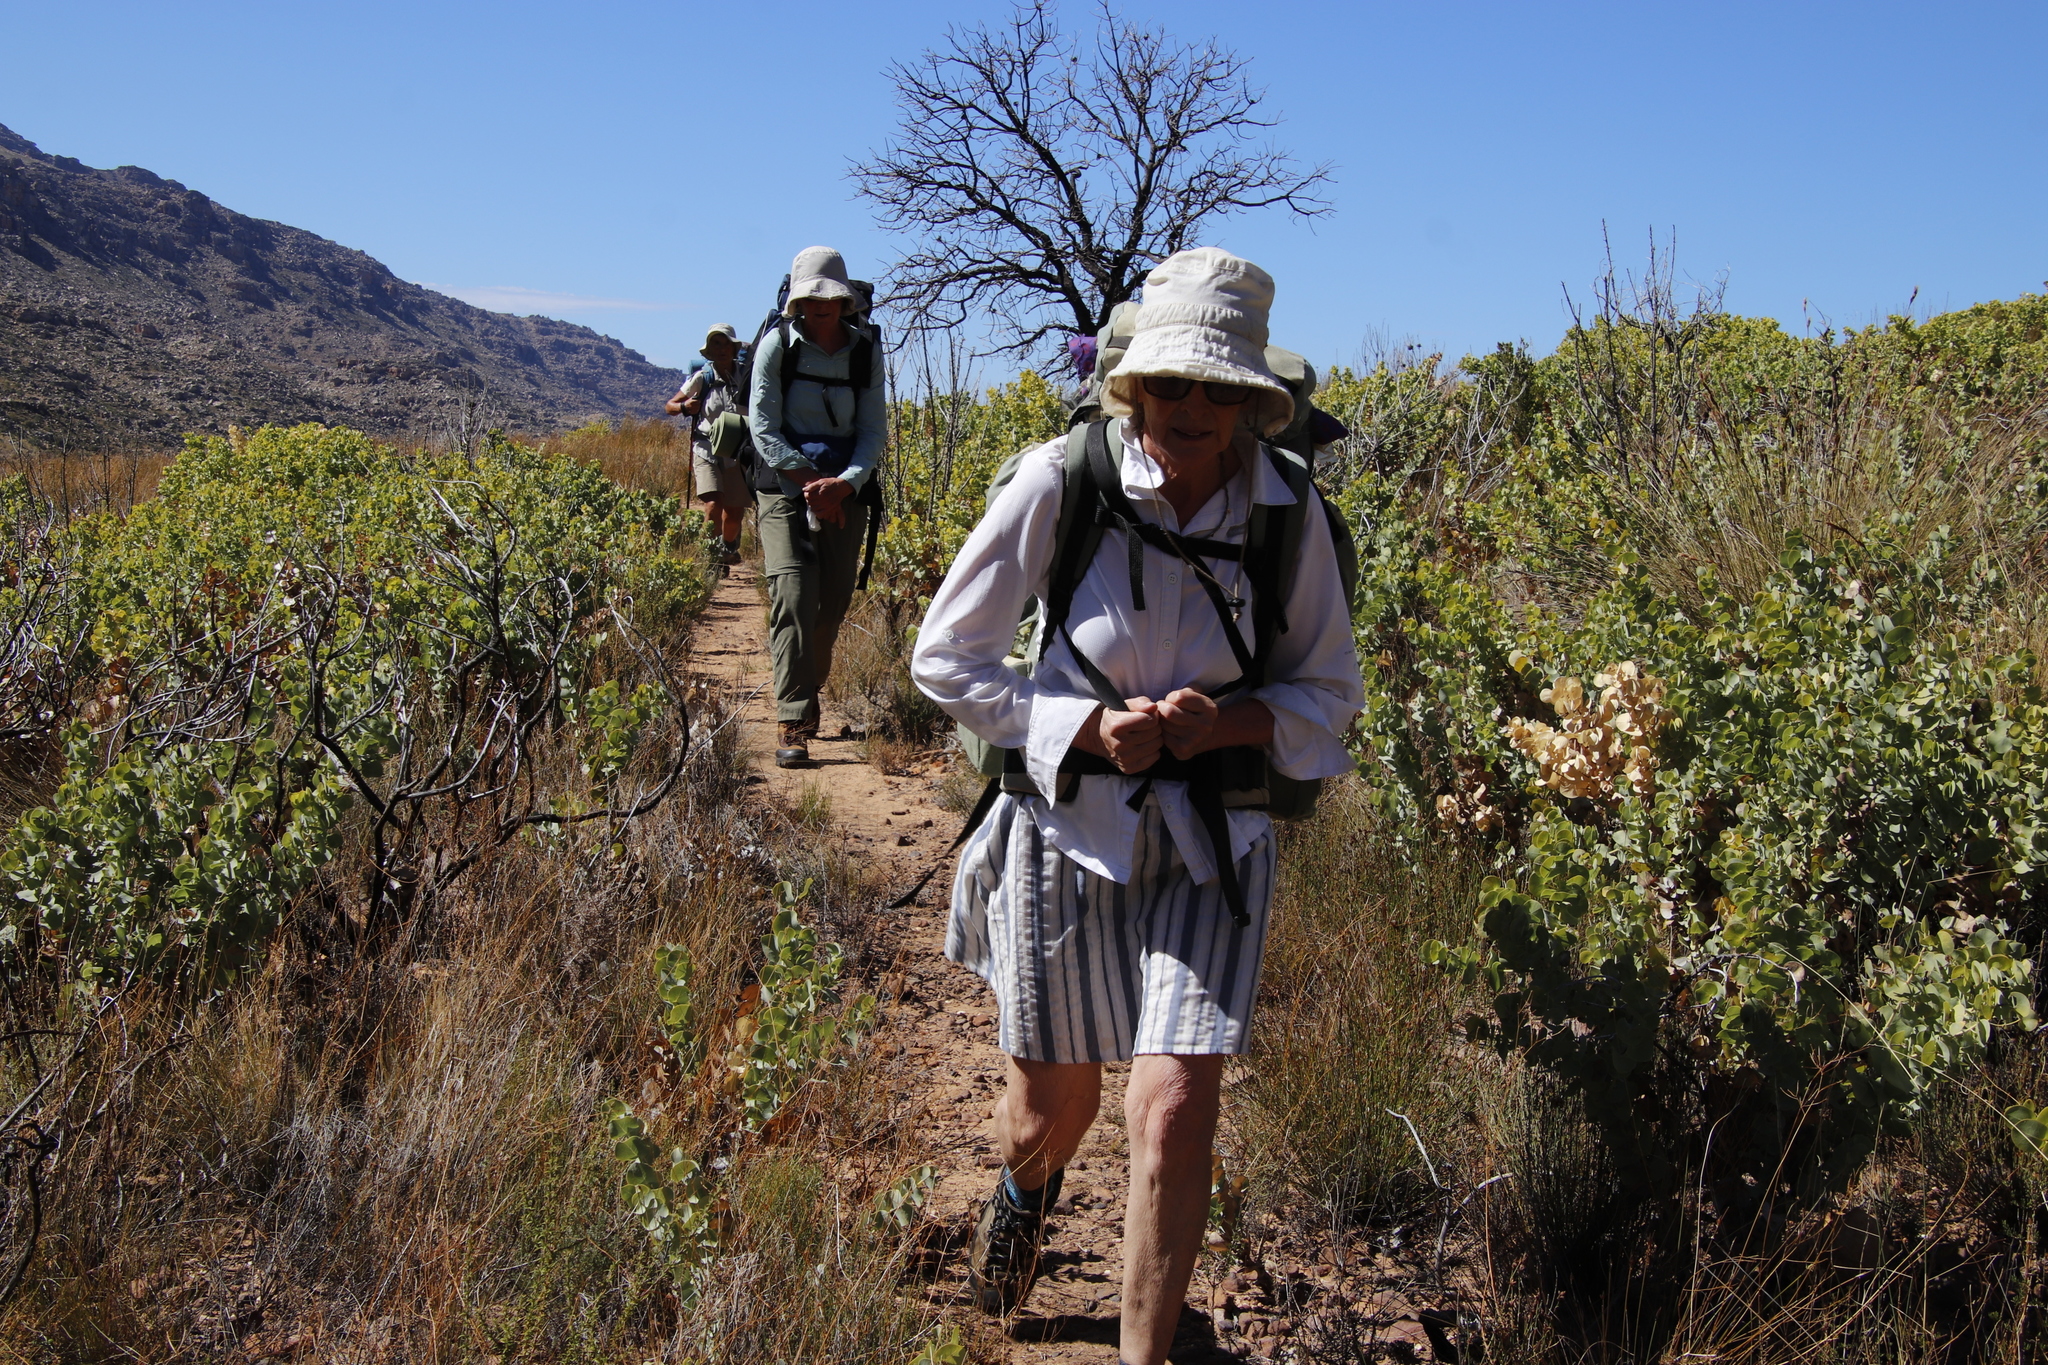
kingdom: Plantae
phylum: Tracheophyta
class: Magnoliopsida
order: Fabales
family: Fabaceae
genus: Rafnia
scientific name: Rafnia amplexicaulis
